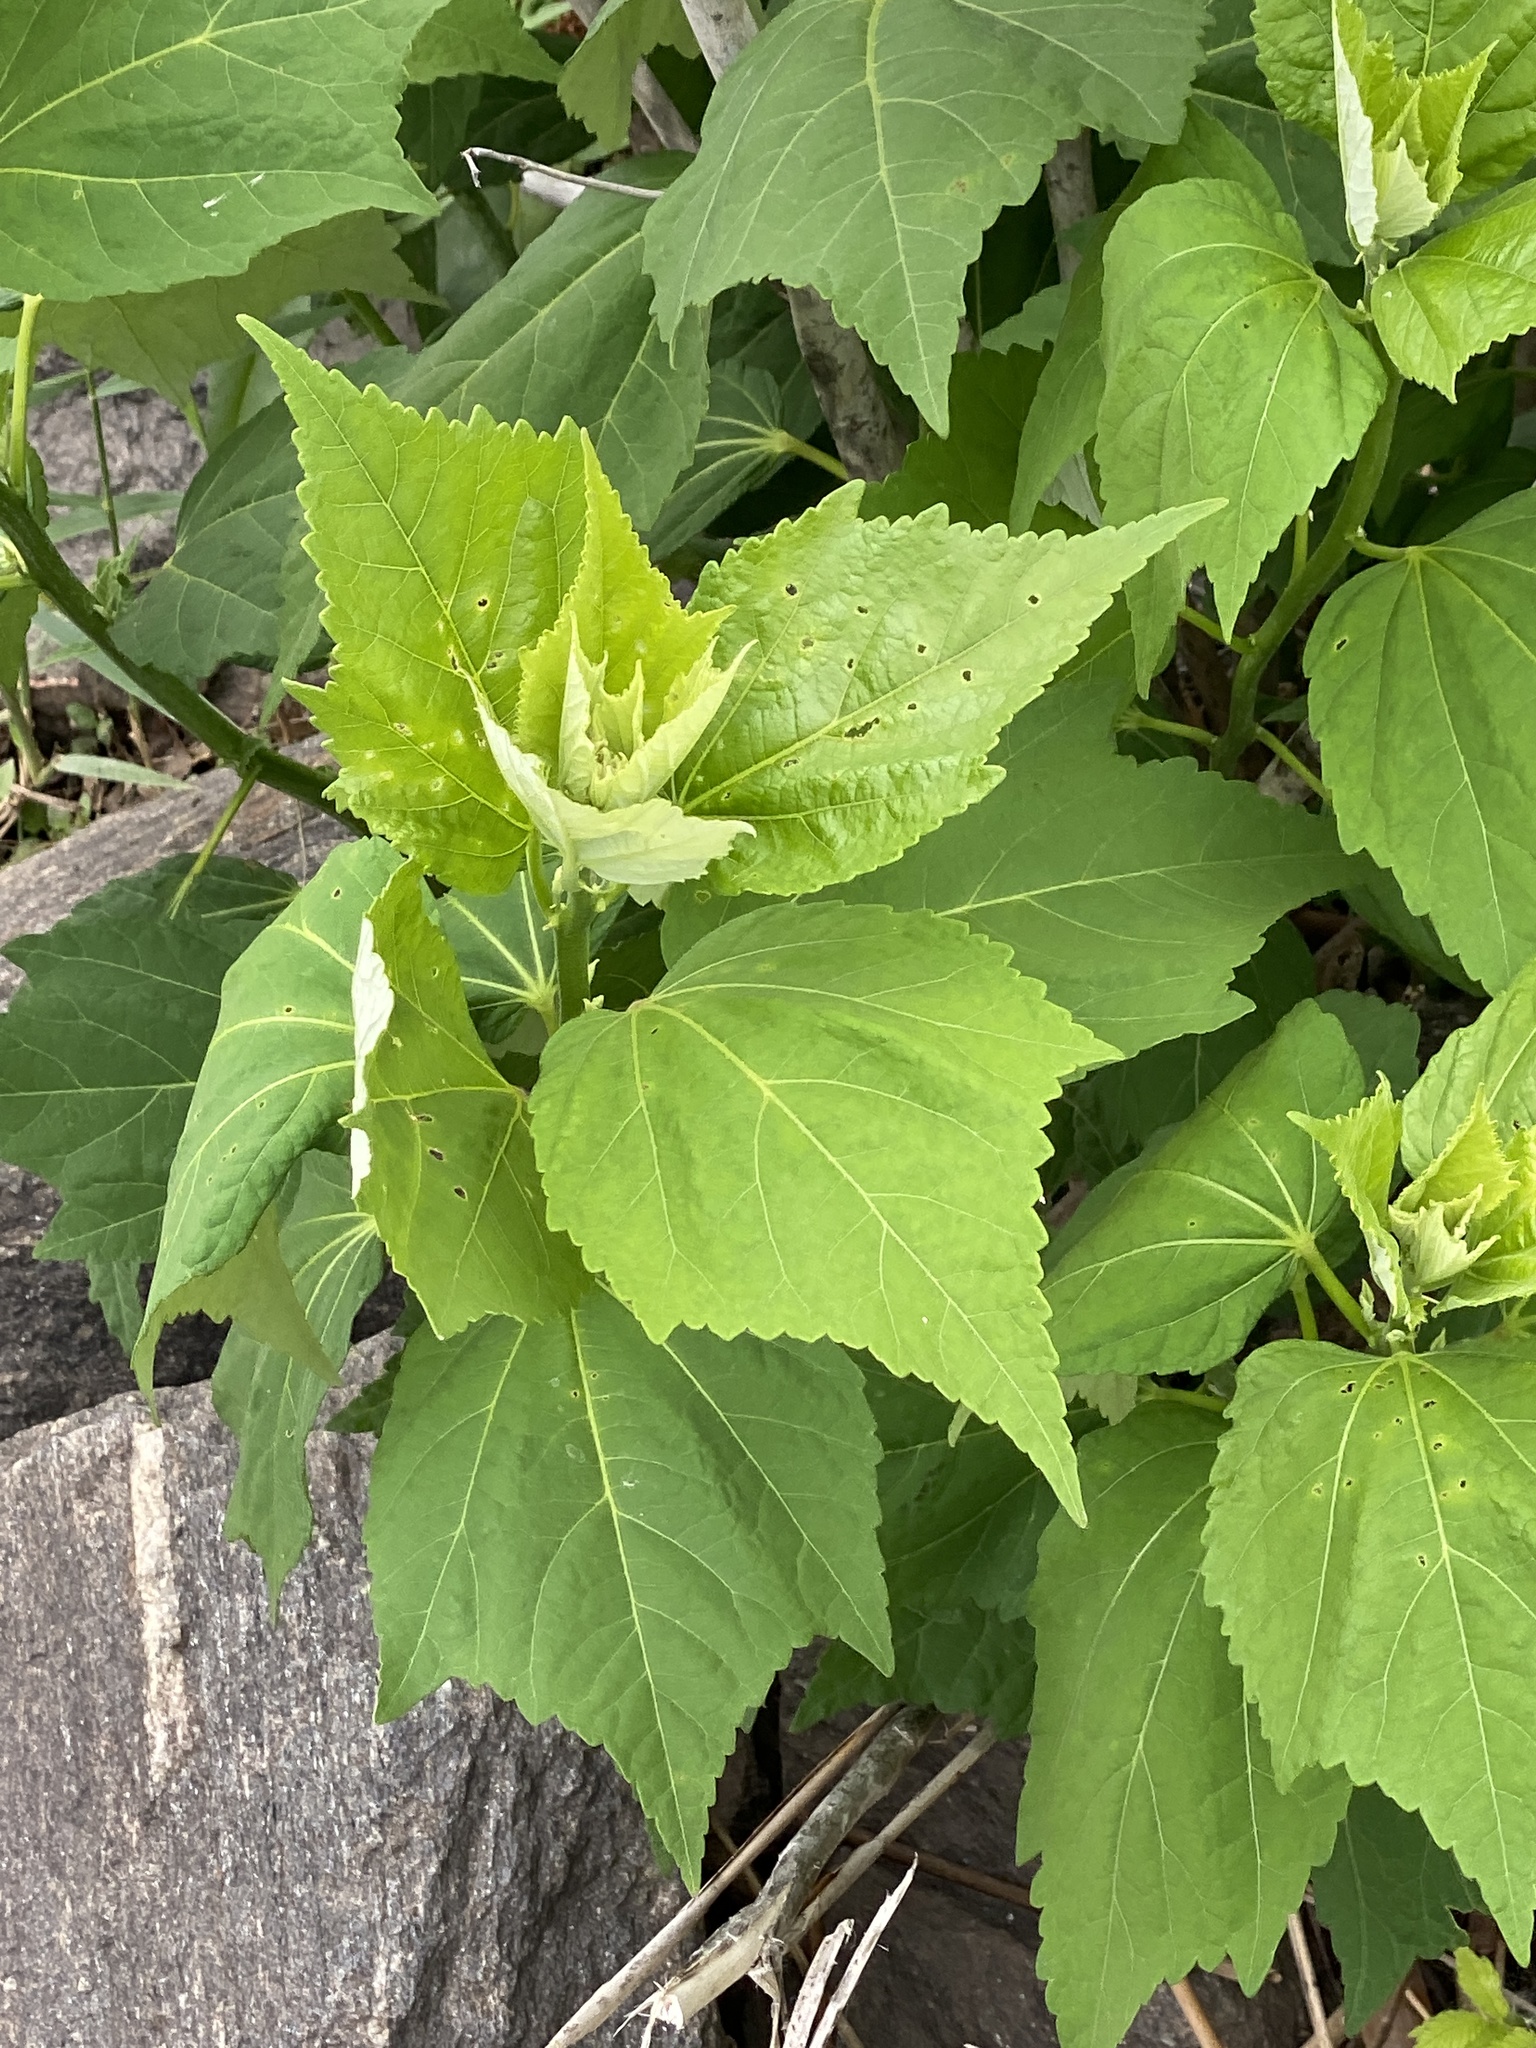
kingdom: Plantae
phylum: Tracheophyta
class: Magnoliopsida
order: Malvales
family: Malvaceae
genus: Hibiscus
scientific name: Hibiscus moscheutos
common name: Common rose-mallow
